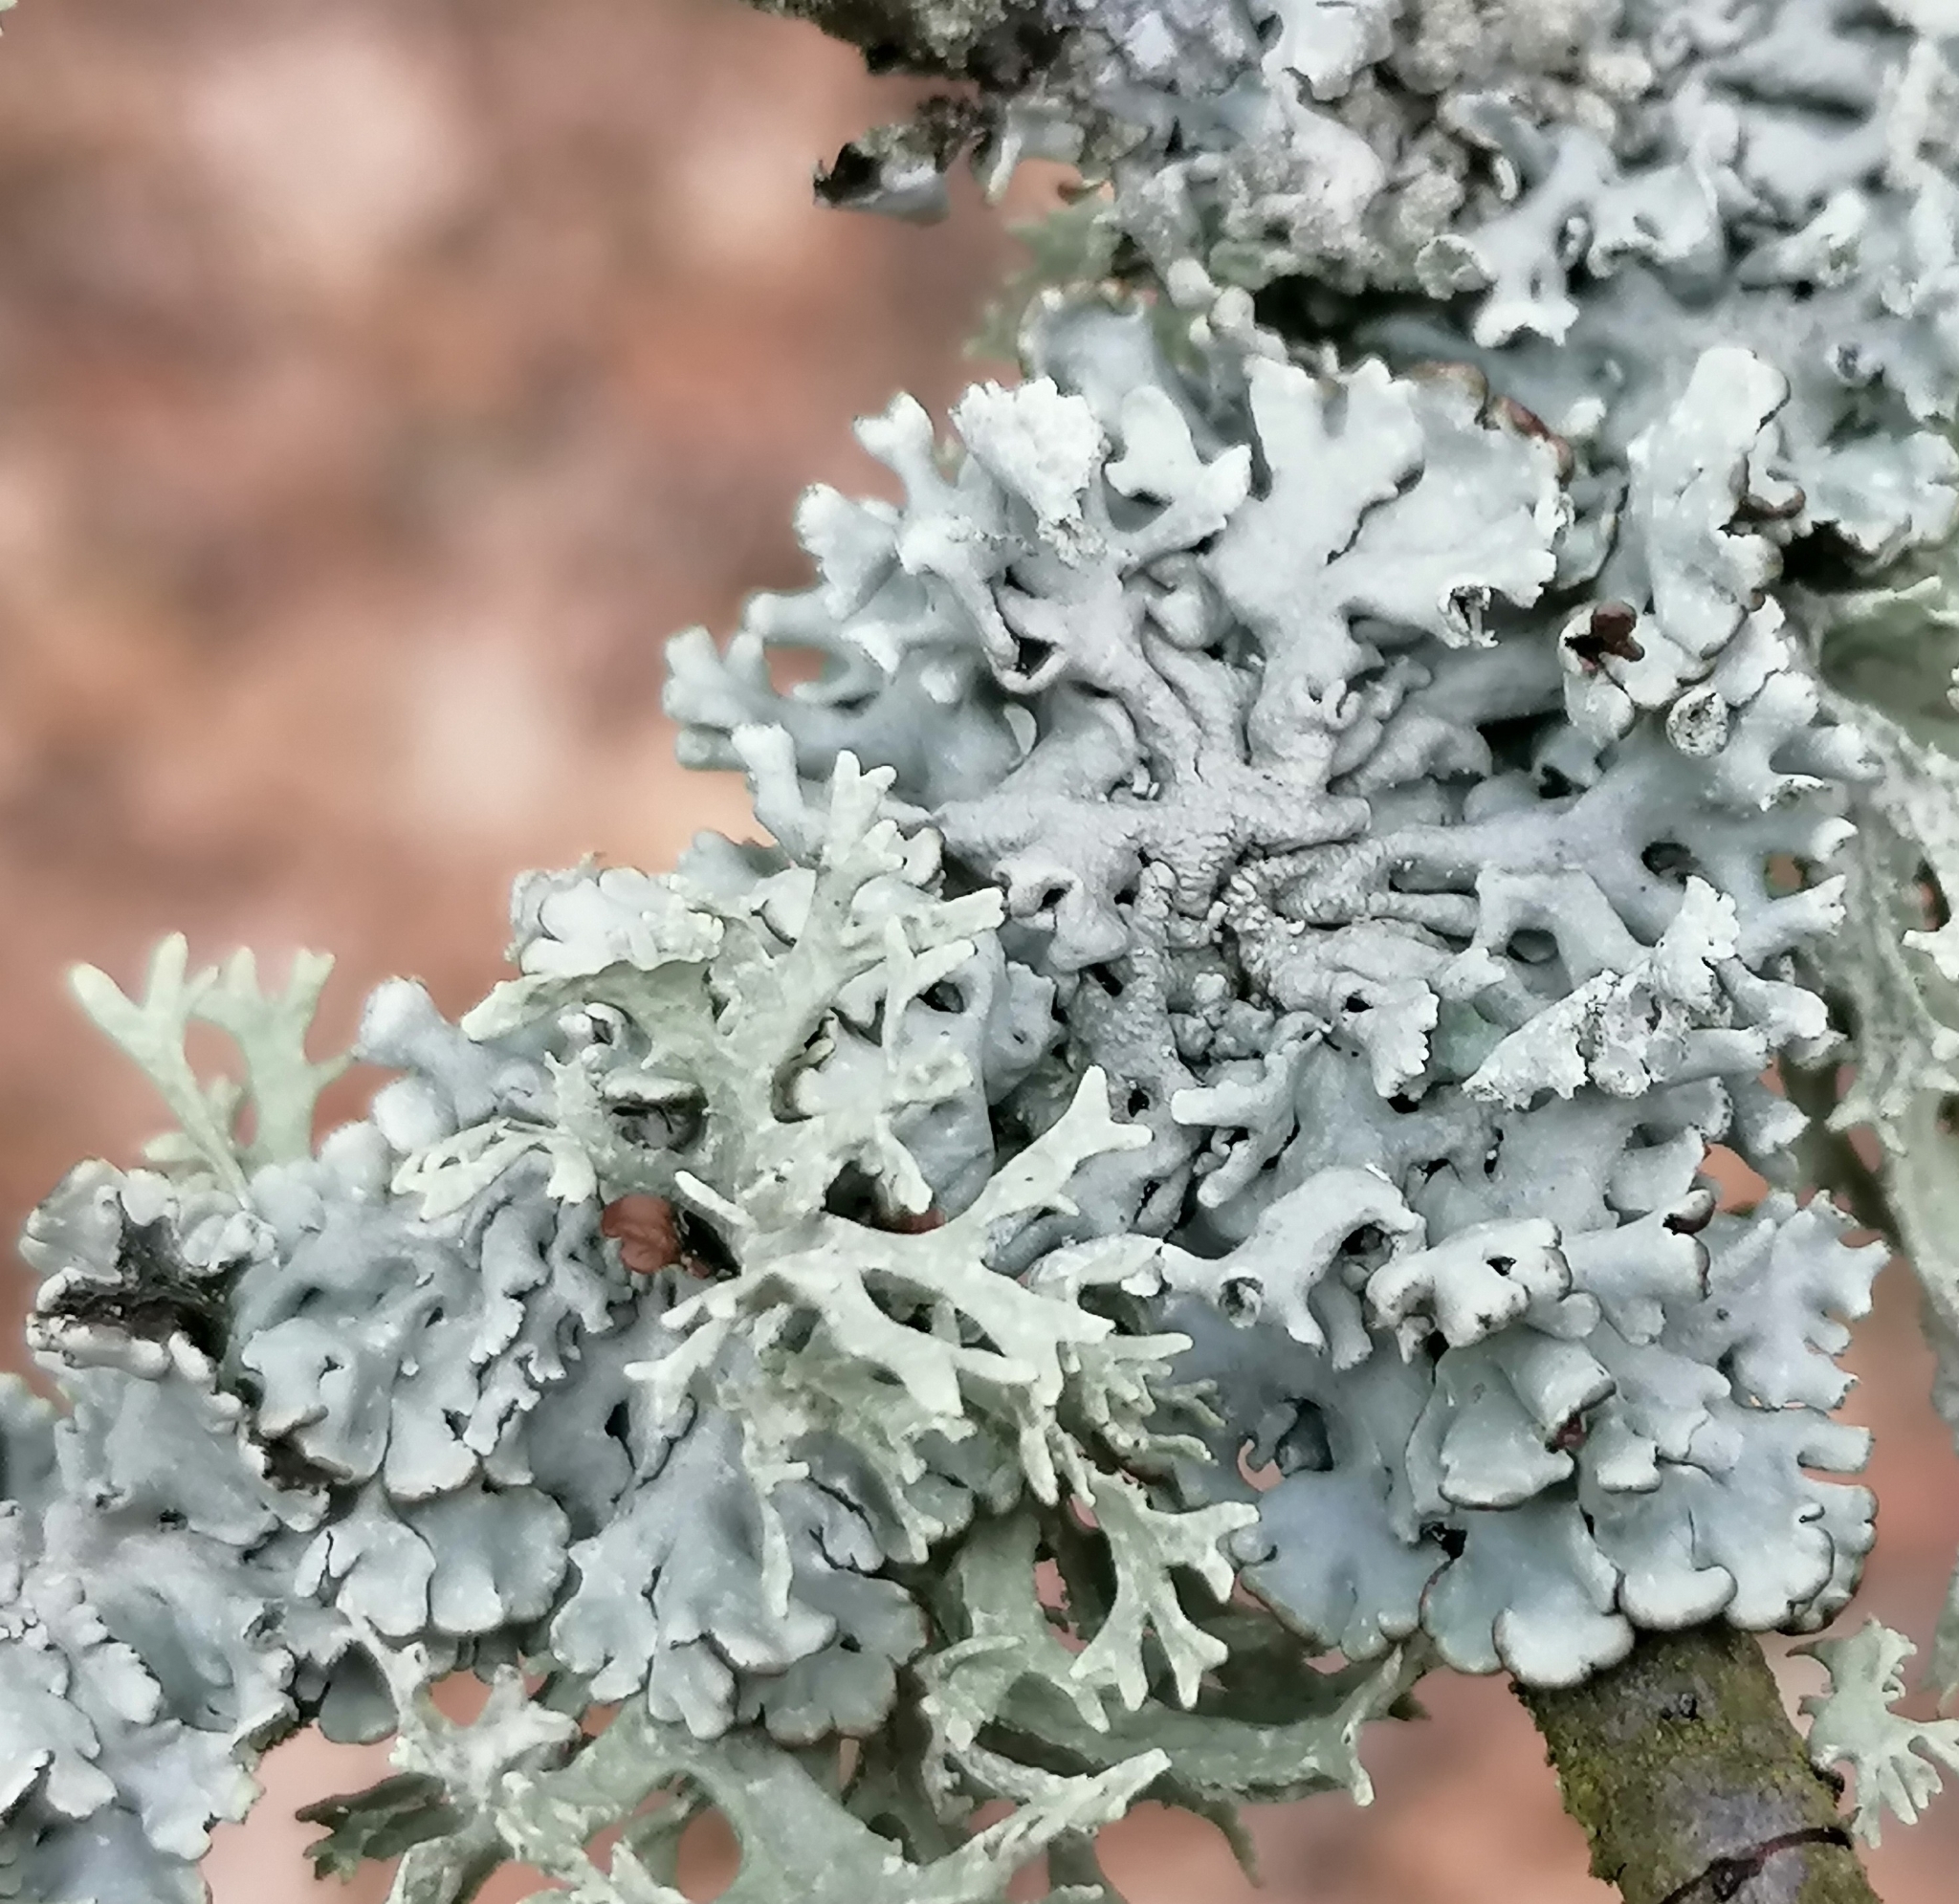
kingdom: Fungi
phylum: Ascomycota
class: Lecanoromycetes
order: Lecanorales
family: Parmeliaceae
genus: Hypogymnia
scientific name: Hypogymnia physodes
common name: Dark crottle
